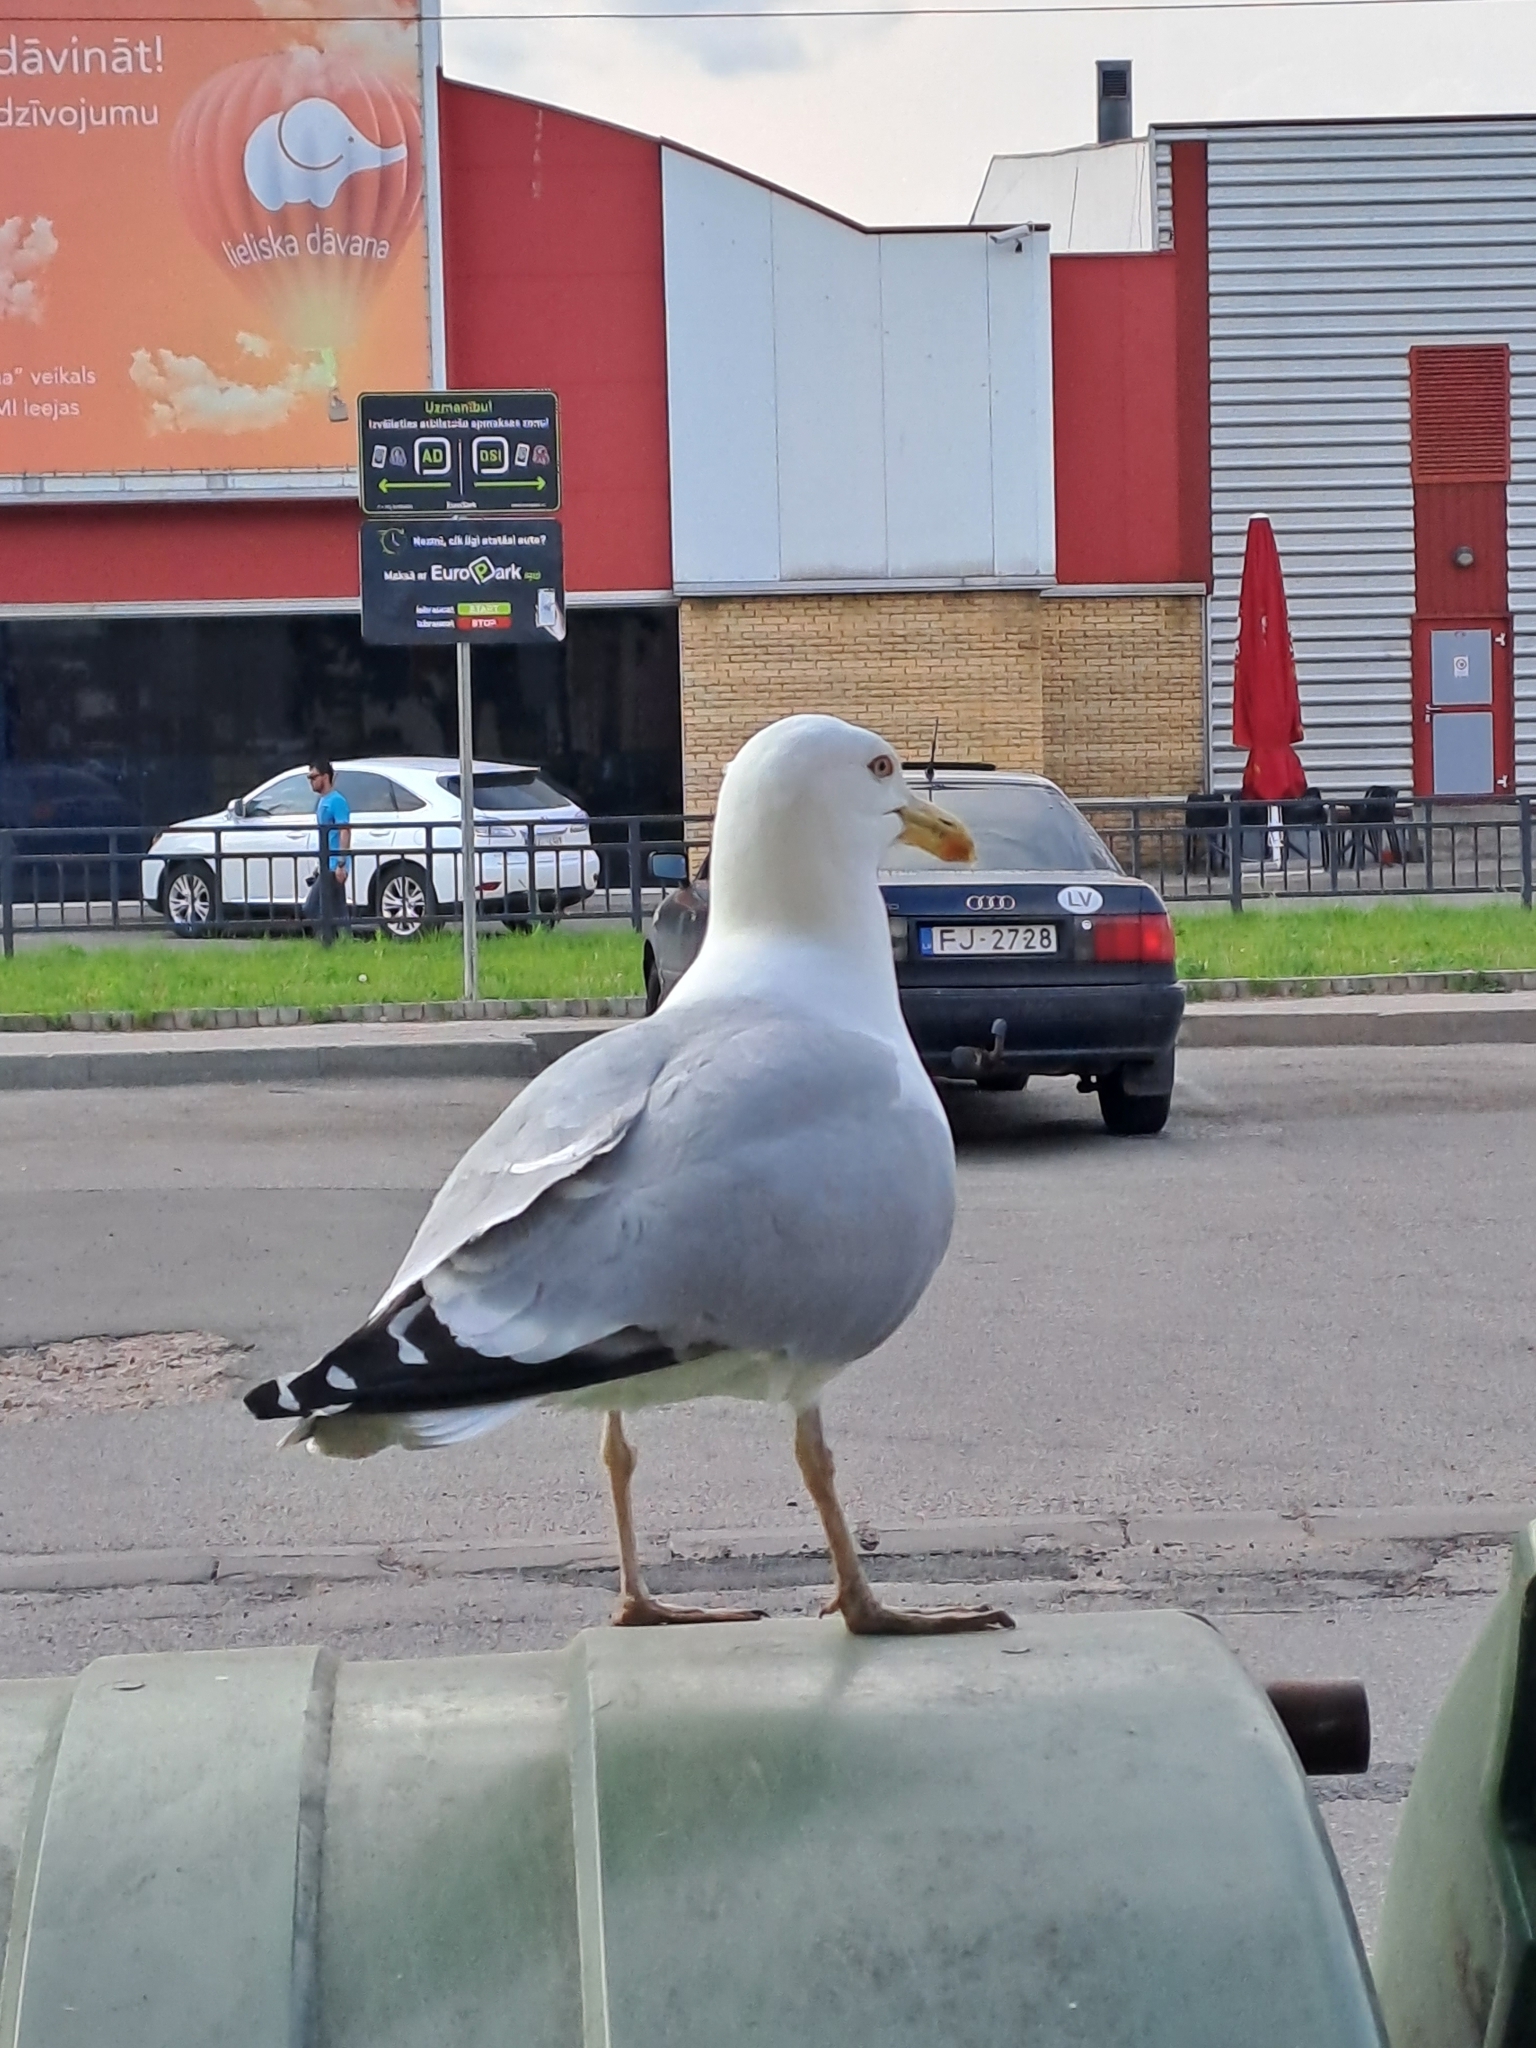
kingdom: Animalia
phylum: Chordata
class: Aves
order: Charadriiformes
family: Laridae
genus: Larus
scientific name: Larus michahellis
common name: Yellow-legged gull
